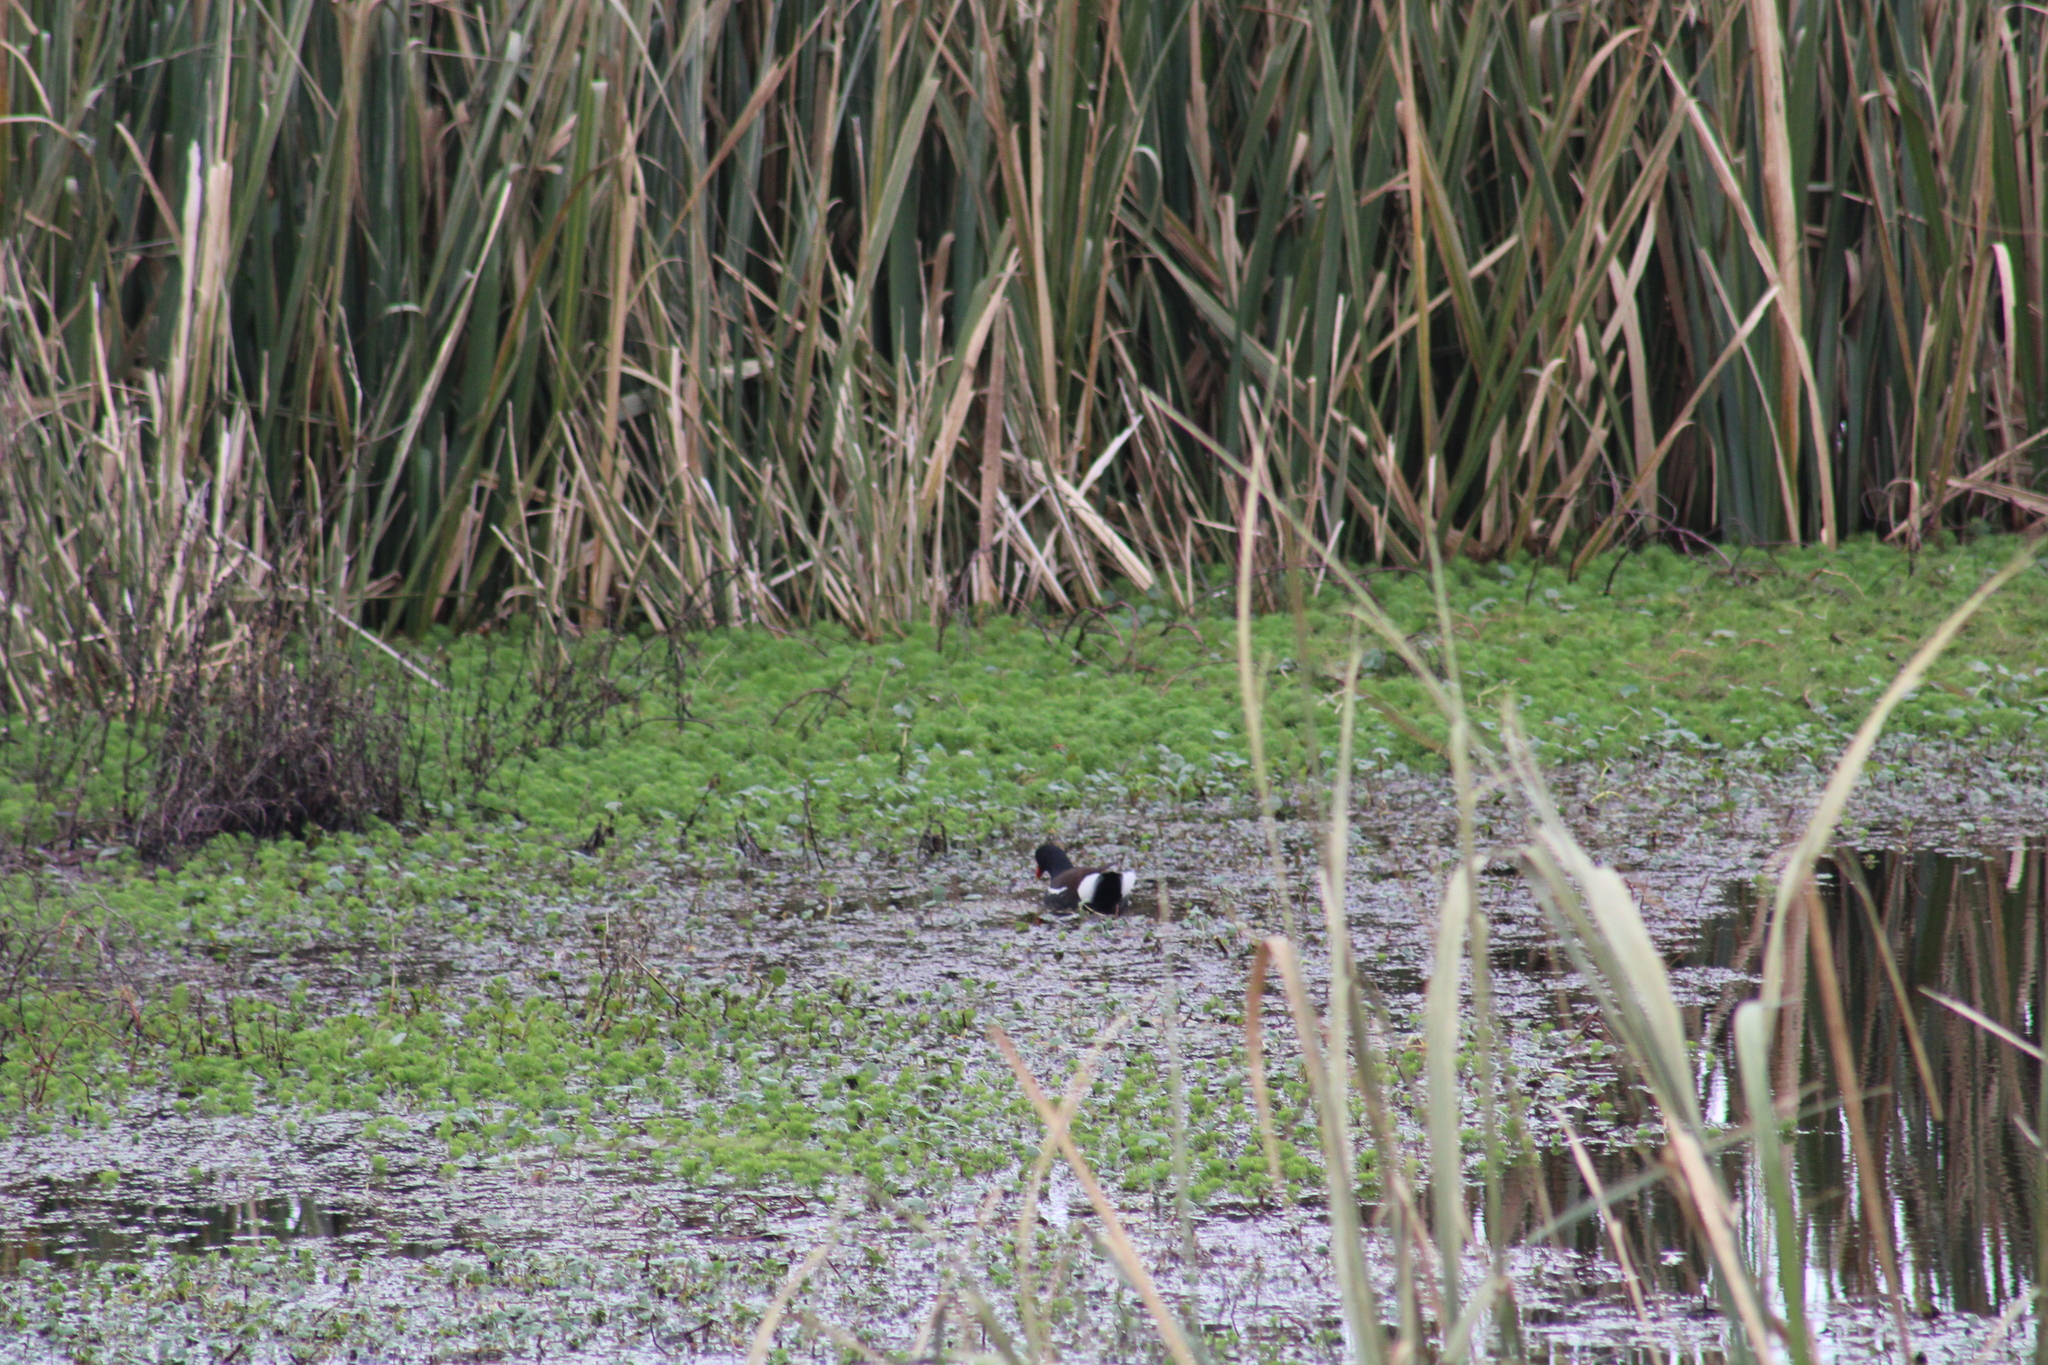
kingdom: Animalia
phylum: Chordata
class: Aves
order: Gruiformes
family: Rallidae
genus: Gallinula
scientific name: Gallinula chloropus
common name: Common moorhen
